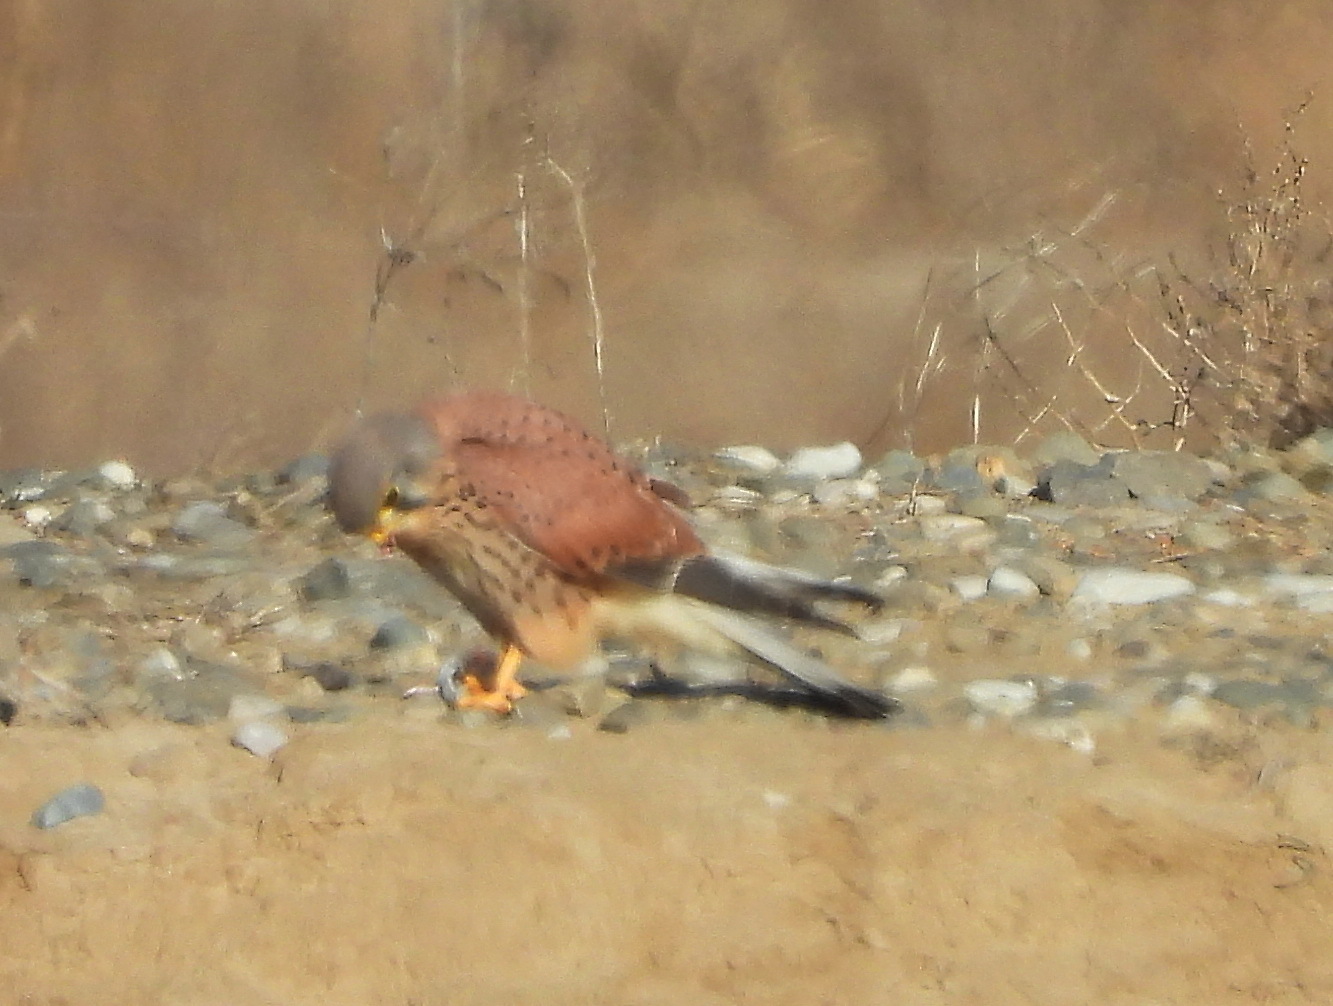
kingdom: Animalia
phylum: Chordata
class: Aves
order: Falconiformes
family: Falconidae
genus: Falco
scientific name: Falco tinnunculus
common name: Common kestrel
